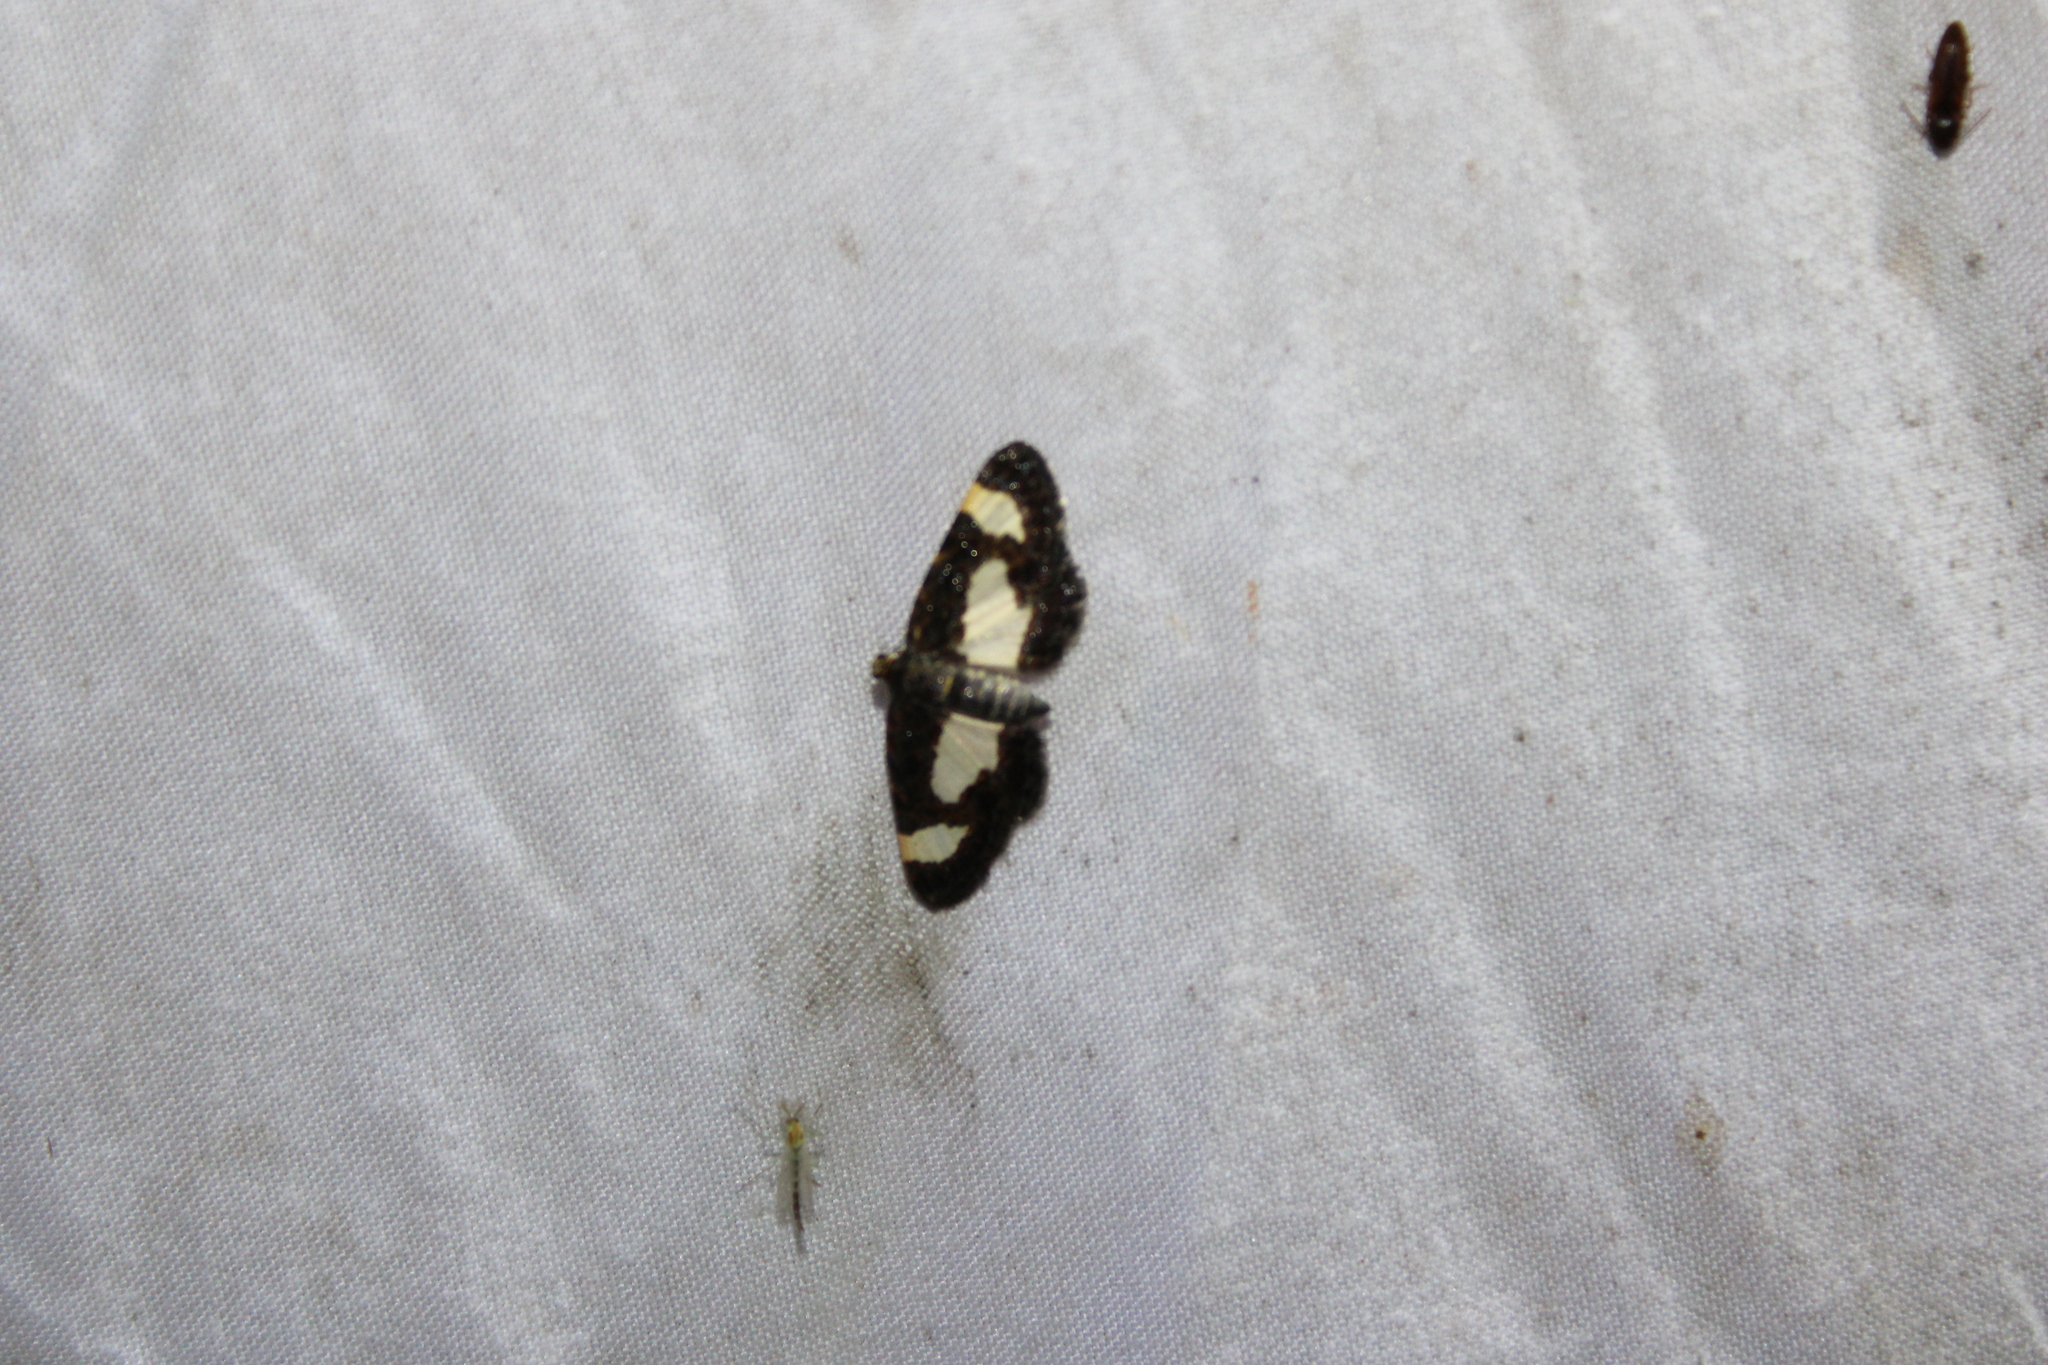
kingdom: Animalia
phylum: Arthropoda
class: Insecta
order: Lepidoptera
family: Geometridae
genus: Heliomata
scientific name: Heliomata cycladata
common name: Common spring moth
